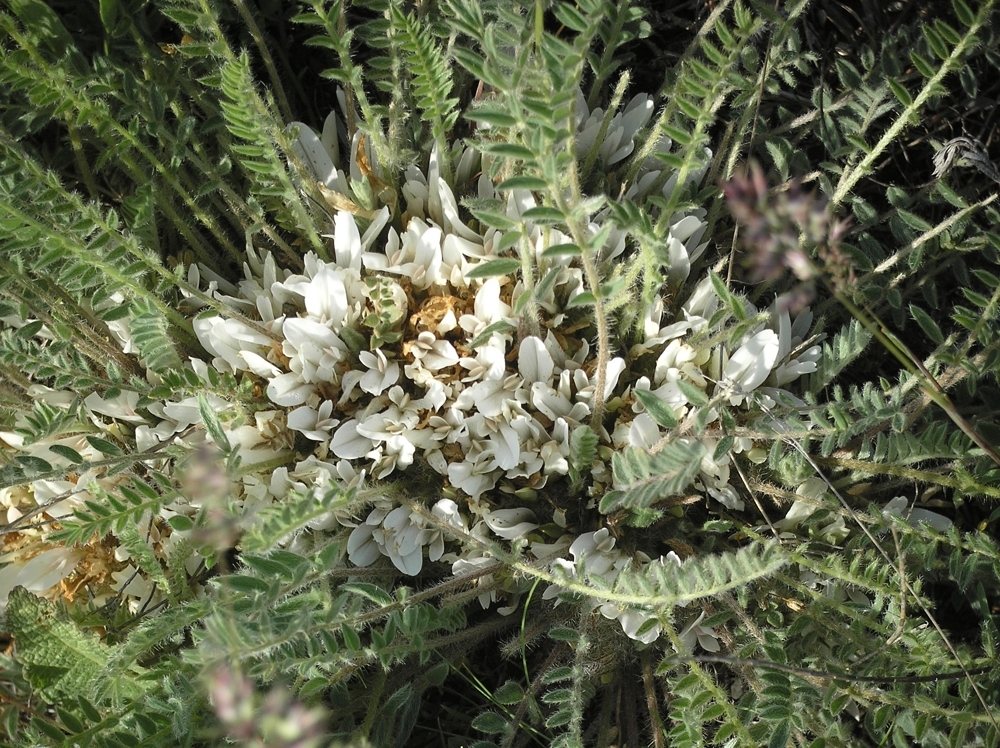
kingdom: Plantae
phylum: Tracheophyta
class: Magnoliopsida
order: Fabales
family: Fabaceae
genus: Astragalus
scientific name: Astragalus dolichophyllus
